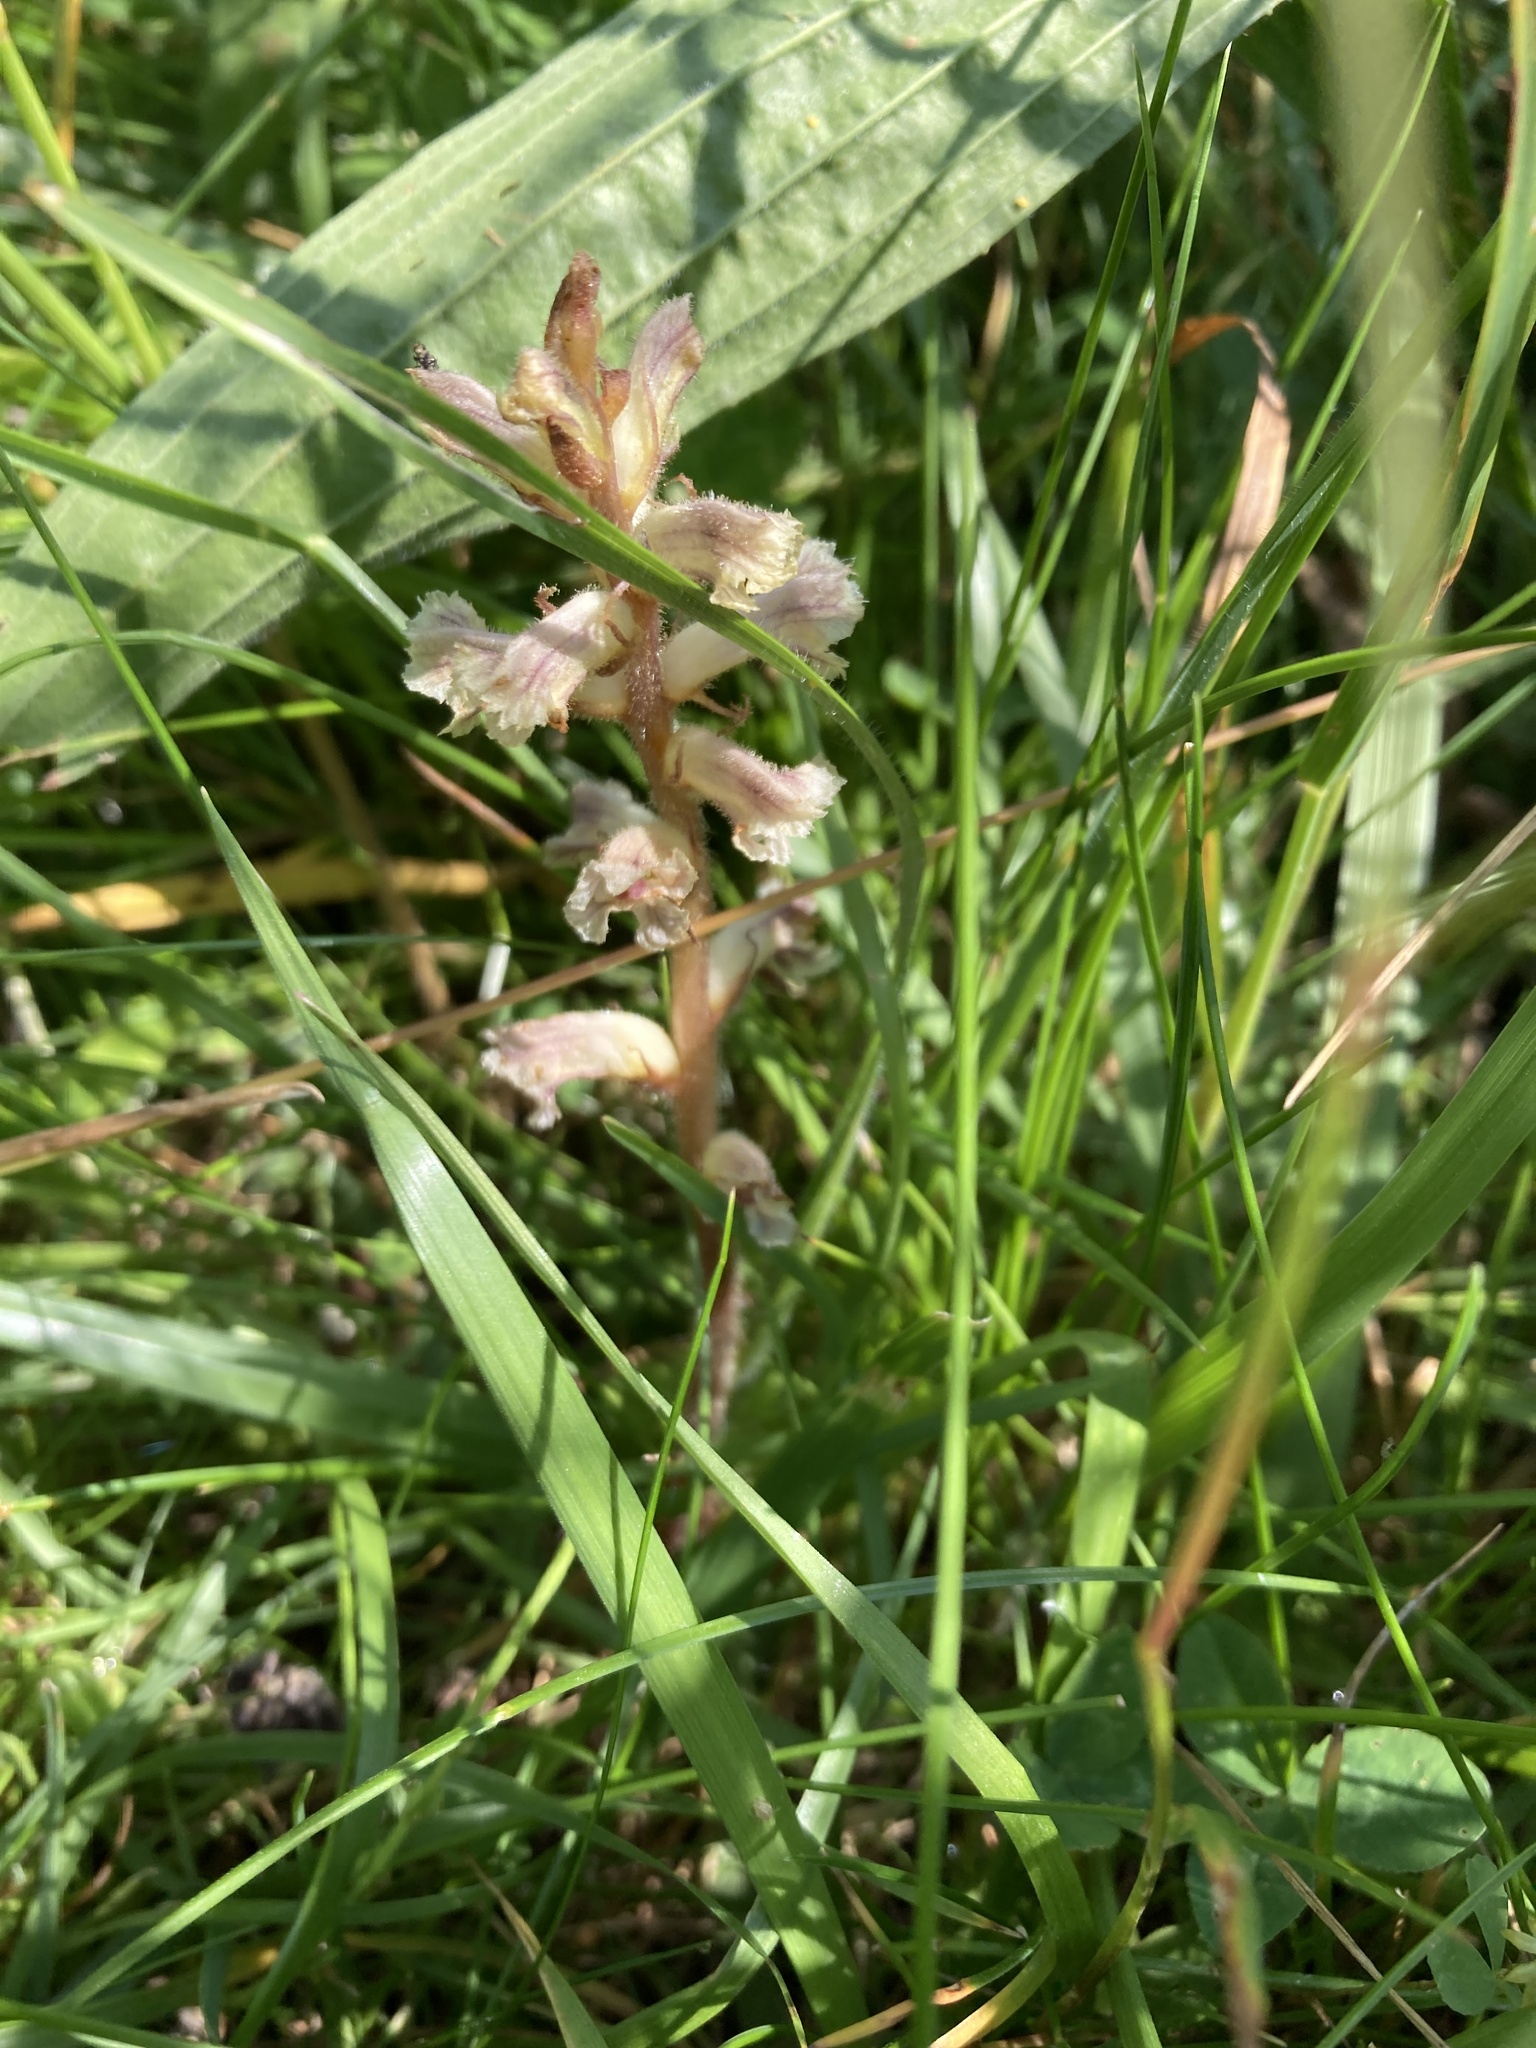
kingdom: Plantae
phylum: Tracheophyta
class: Magnoliopsida
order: Lamiales
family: Orobanchaceae
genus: Orobanche
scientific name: Orobanche minor
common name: Common broomrape
